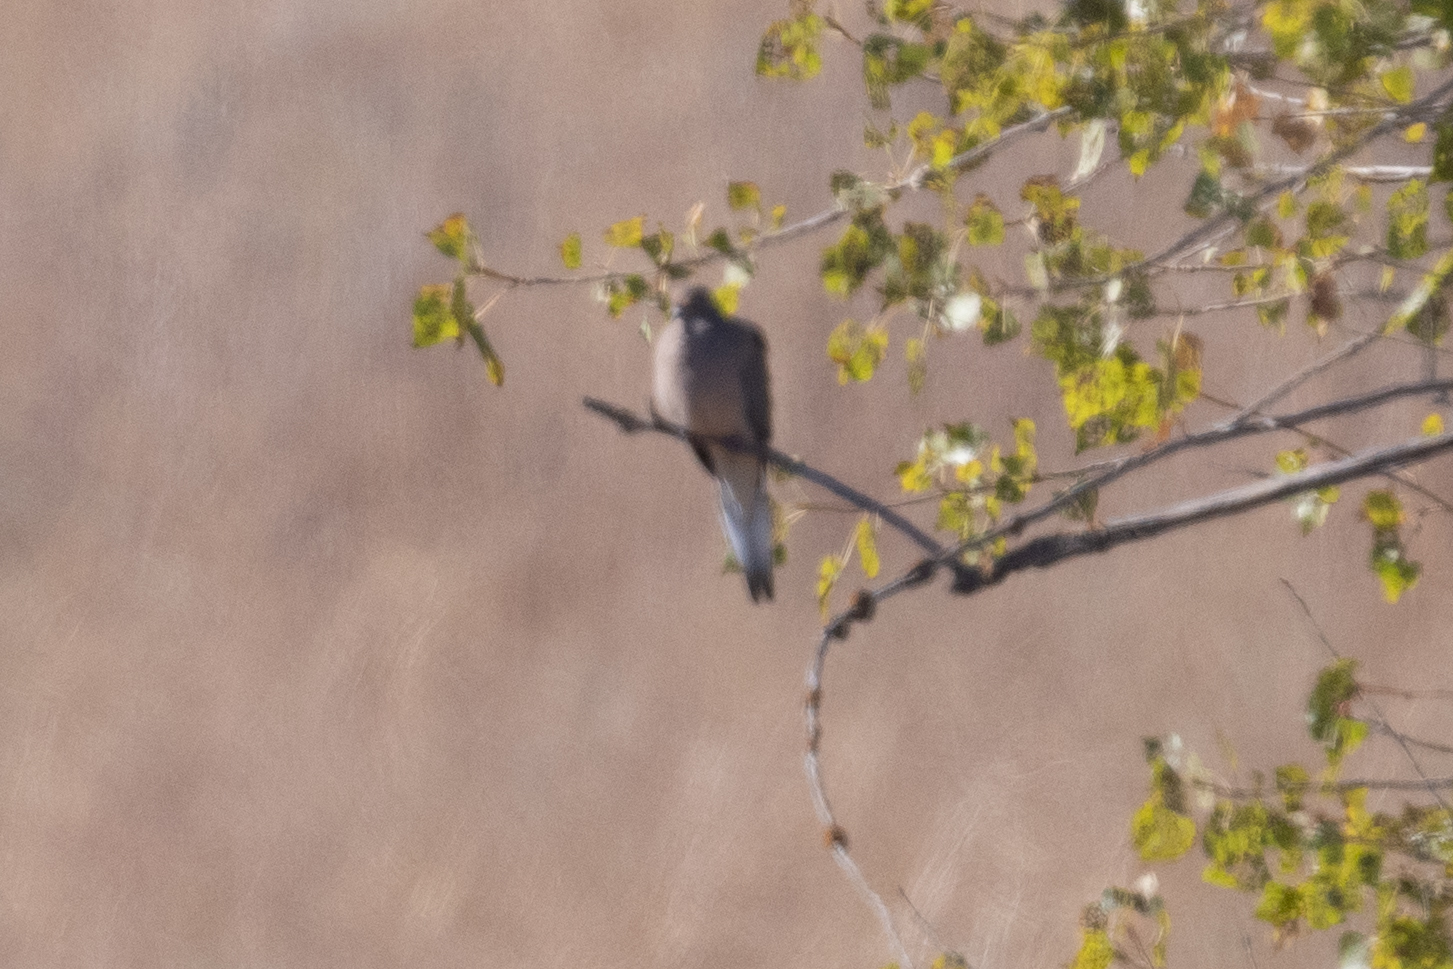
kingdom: Animalia
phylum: Chordata
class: Aves
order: Columbiformes
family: Columbidae
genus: Zenaida
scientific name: Zenaida macroura
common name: Mourning dove
